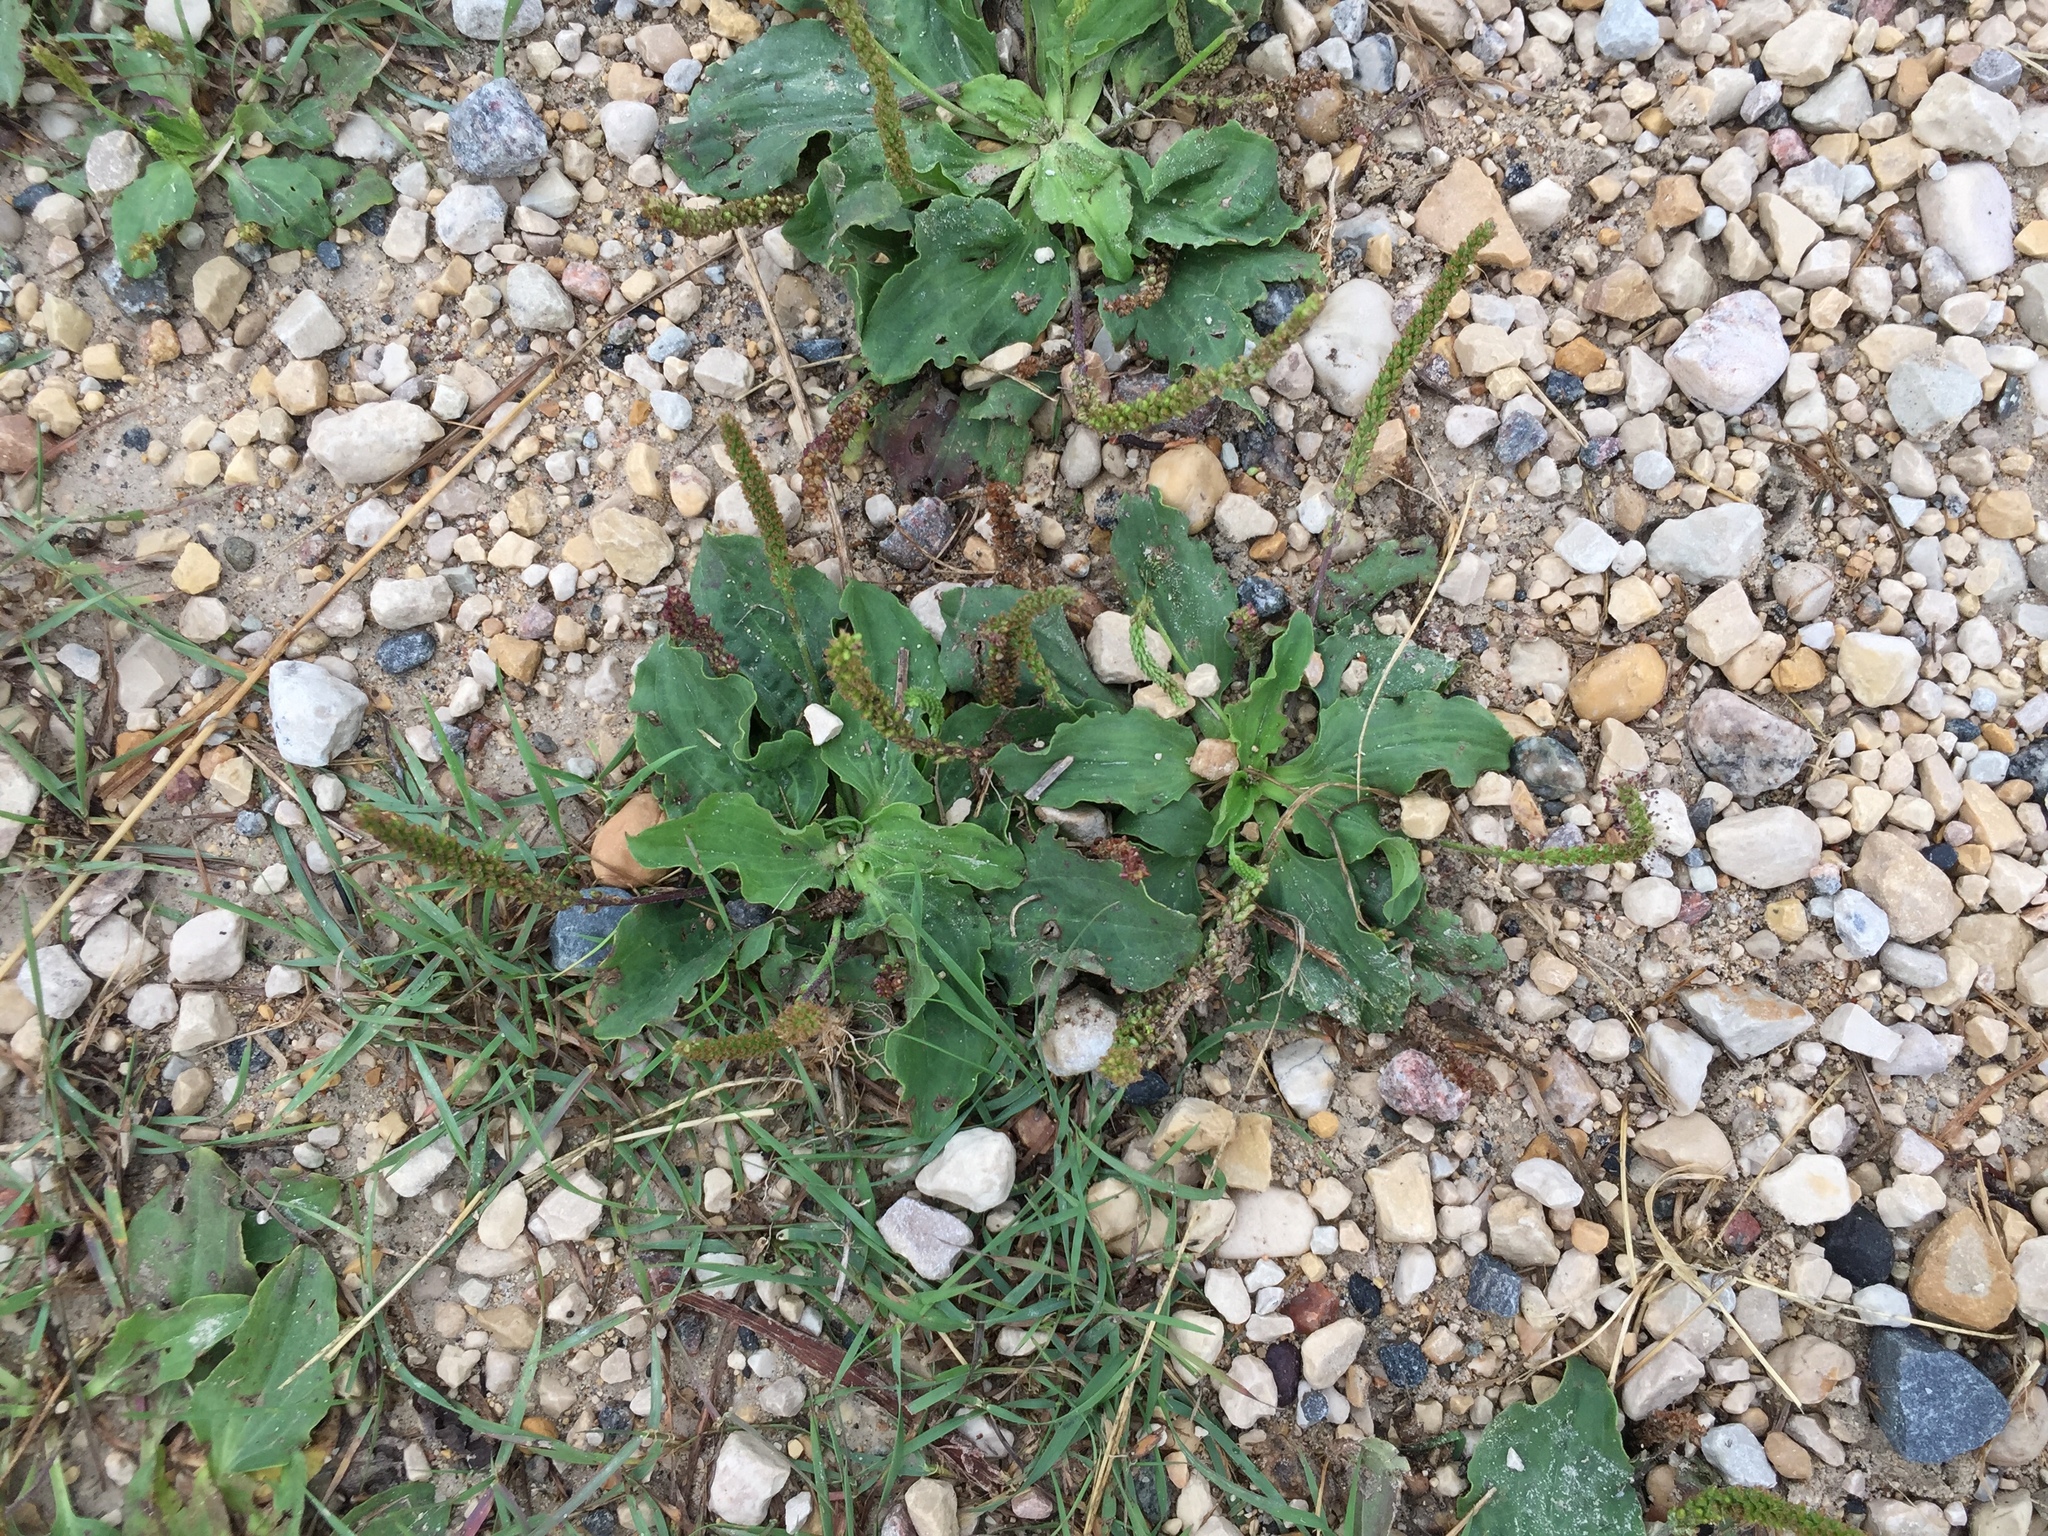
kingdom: Plantae
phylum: Tracheophyta
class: Magnoliopsida
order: Lamiales
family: Plantaginaceae
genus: Plantago
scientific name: Plantago major
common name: Common plantain
